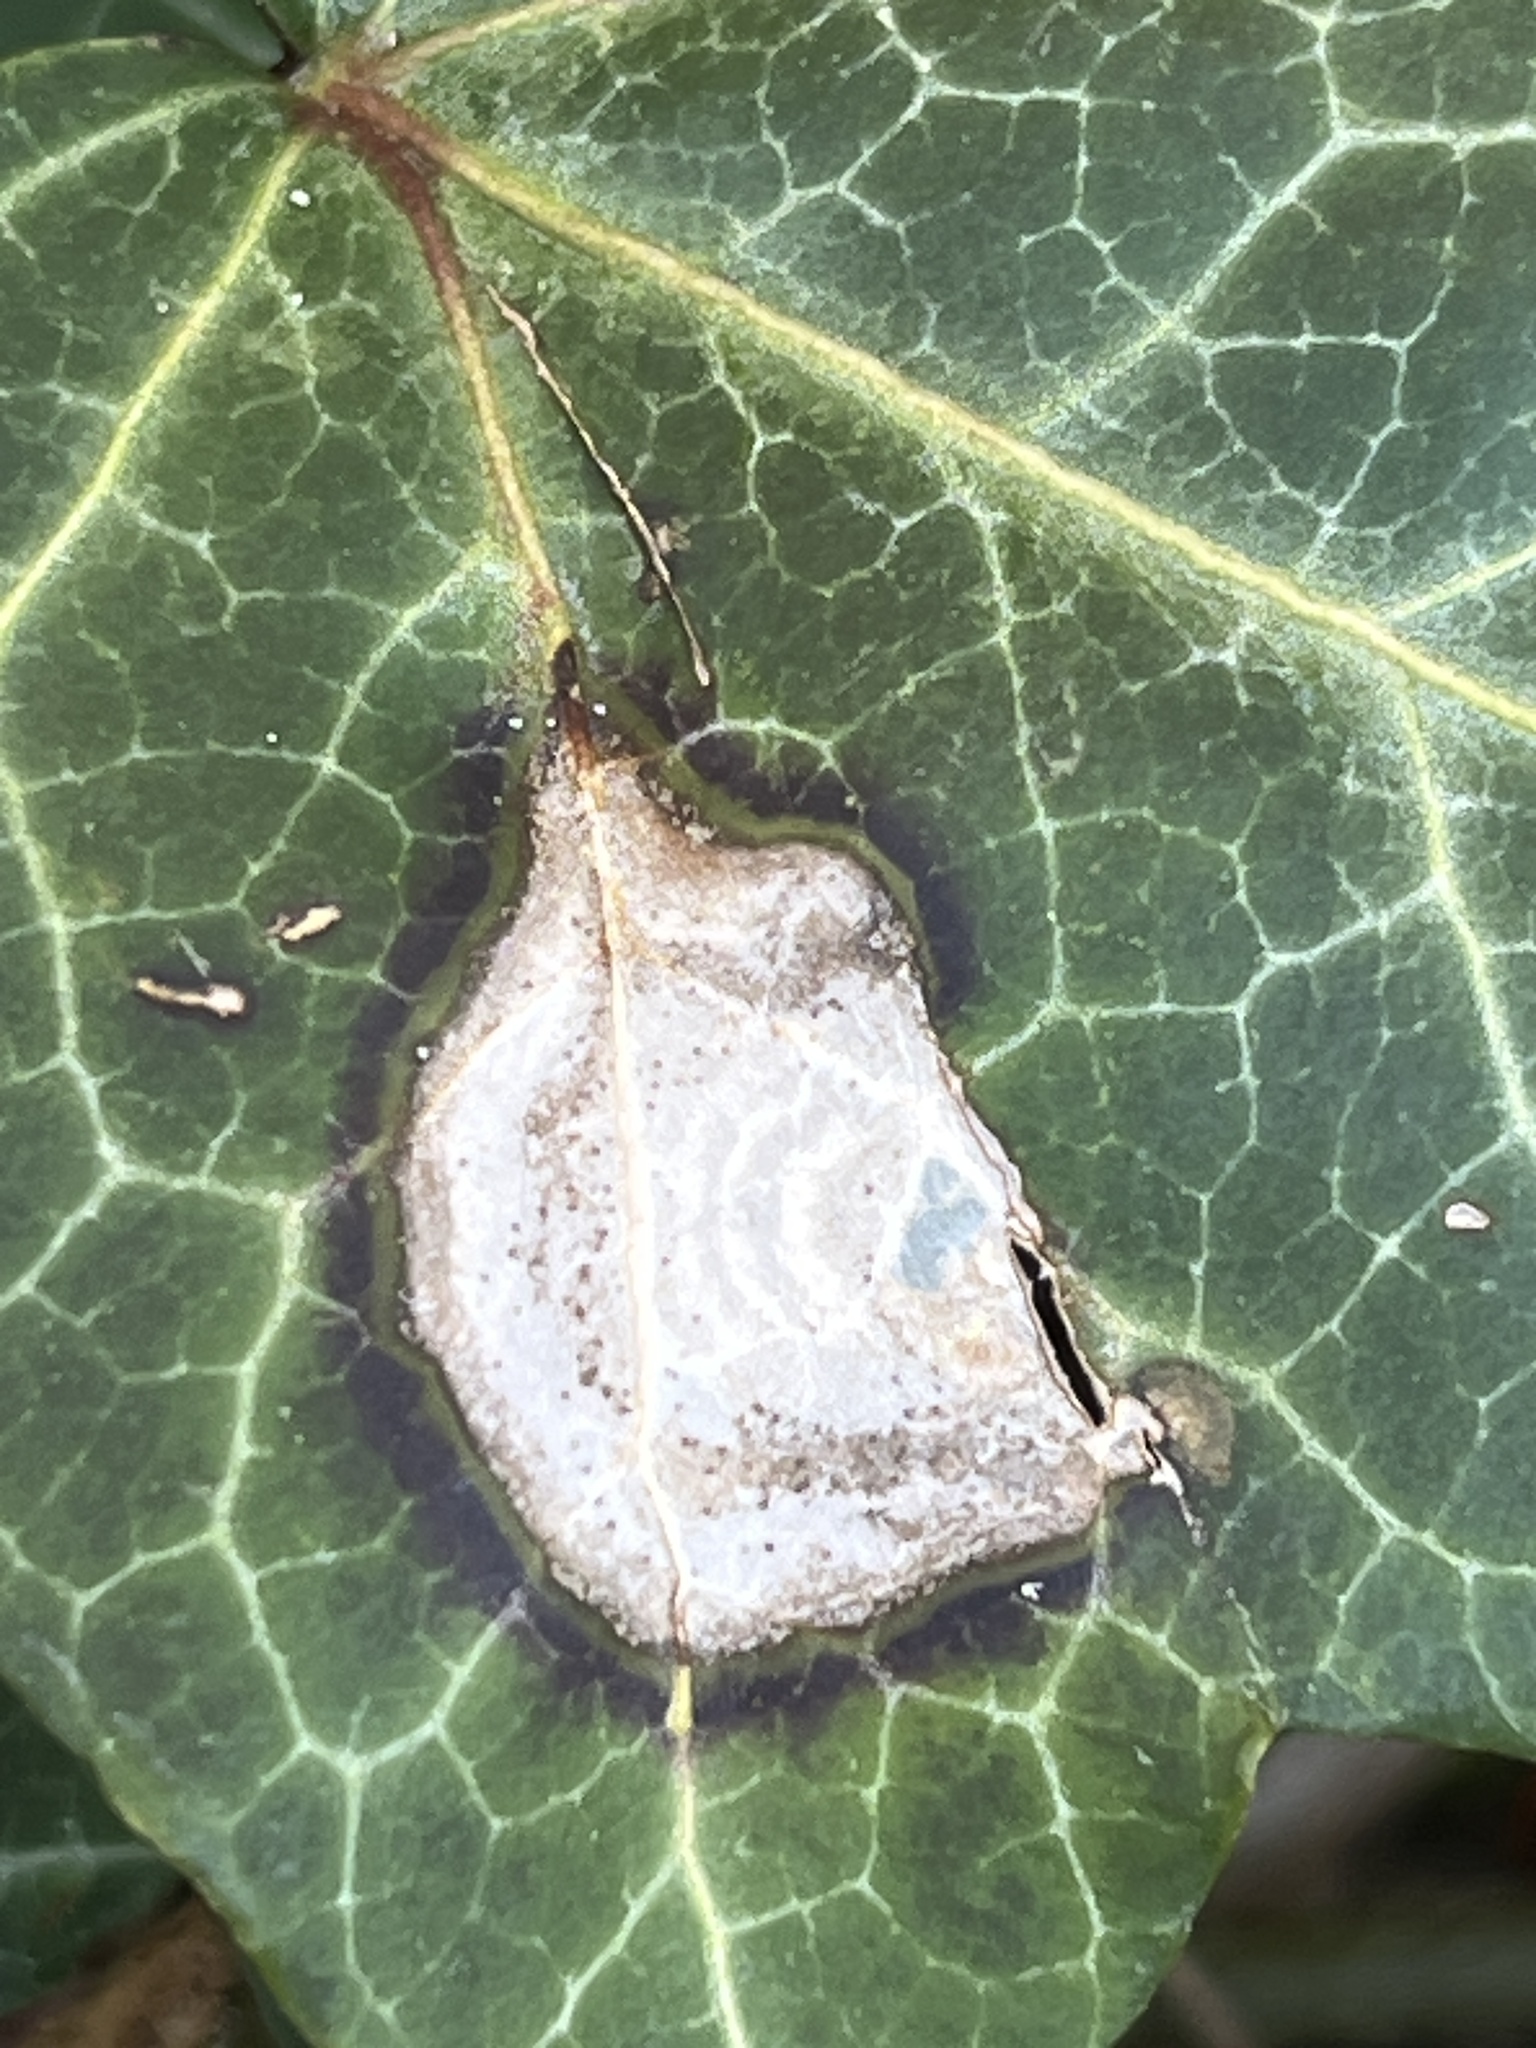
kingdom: Fungi
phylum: Ascomycota
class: Dothideomycetes
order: Pleosporales
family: Didymellaceae
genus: Boeremia
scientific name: Boeremia hedericola
